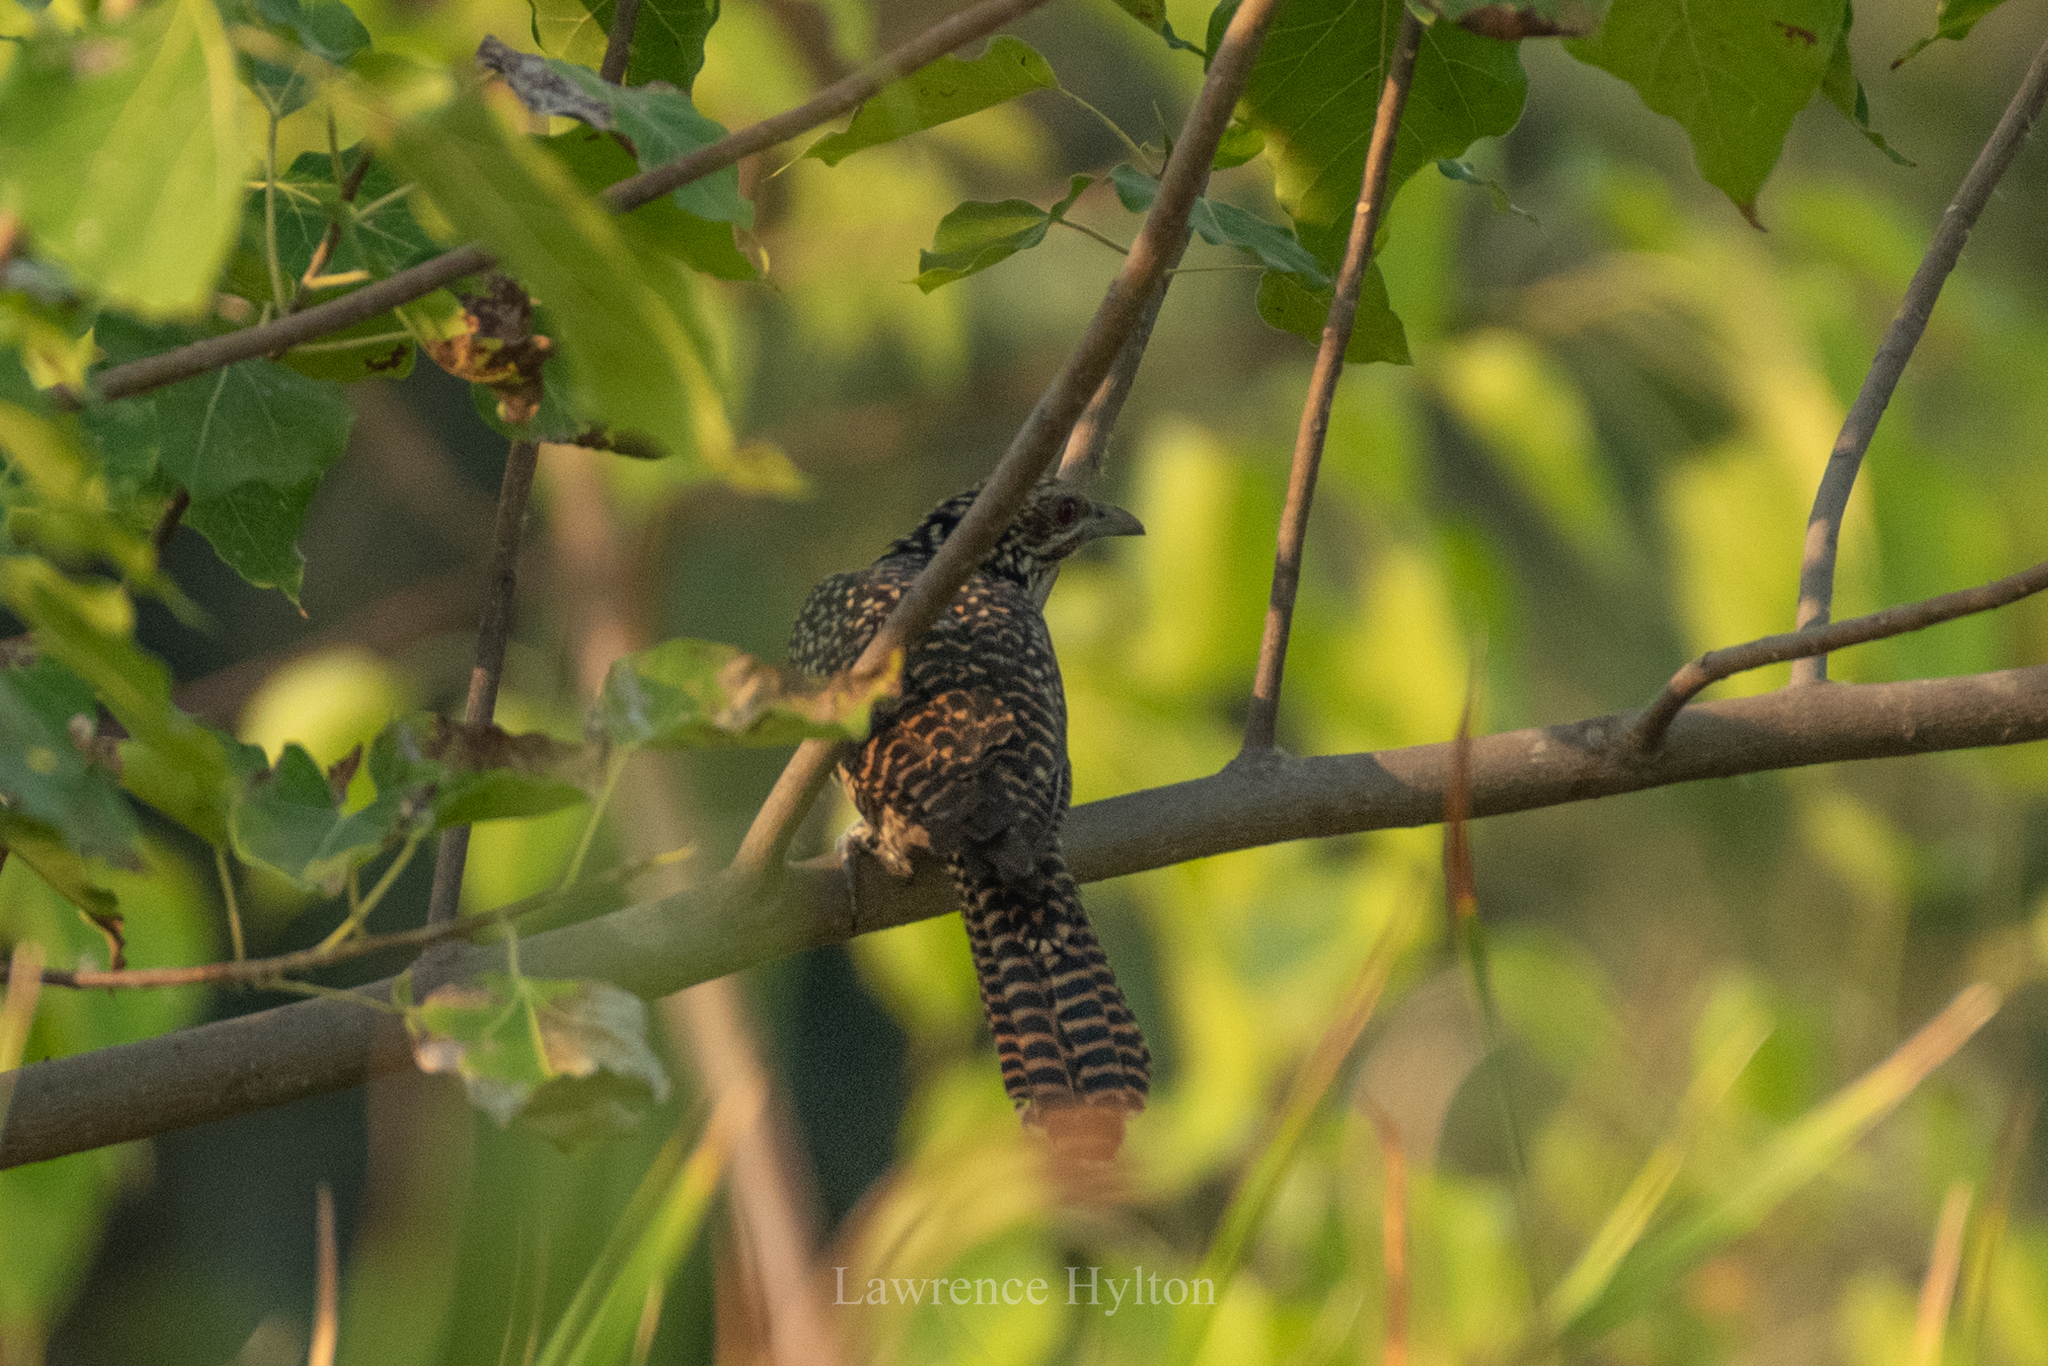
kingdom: Animalia
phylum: Chordata
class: Aves
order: Cuculiformes
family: Cuculidae
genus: Eudynamys
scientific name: Eudynamys scolopaceus
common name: Asian koel
